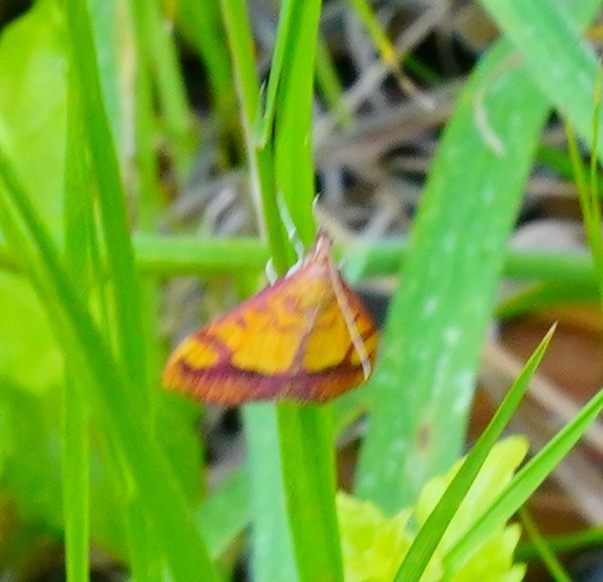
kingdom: Animalia
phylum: Arthropoda
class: Insecta
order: Lepidoptera
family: Crambidae
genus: Pyrausta
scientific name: Pyrausta perrubralis
